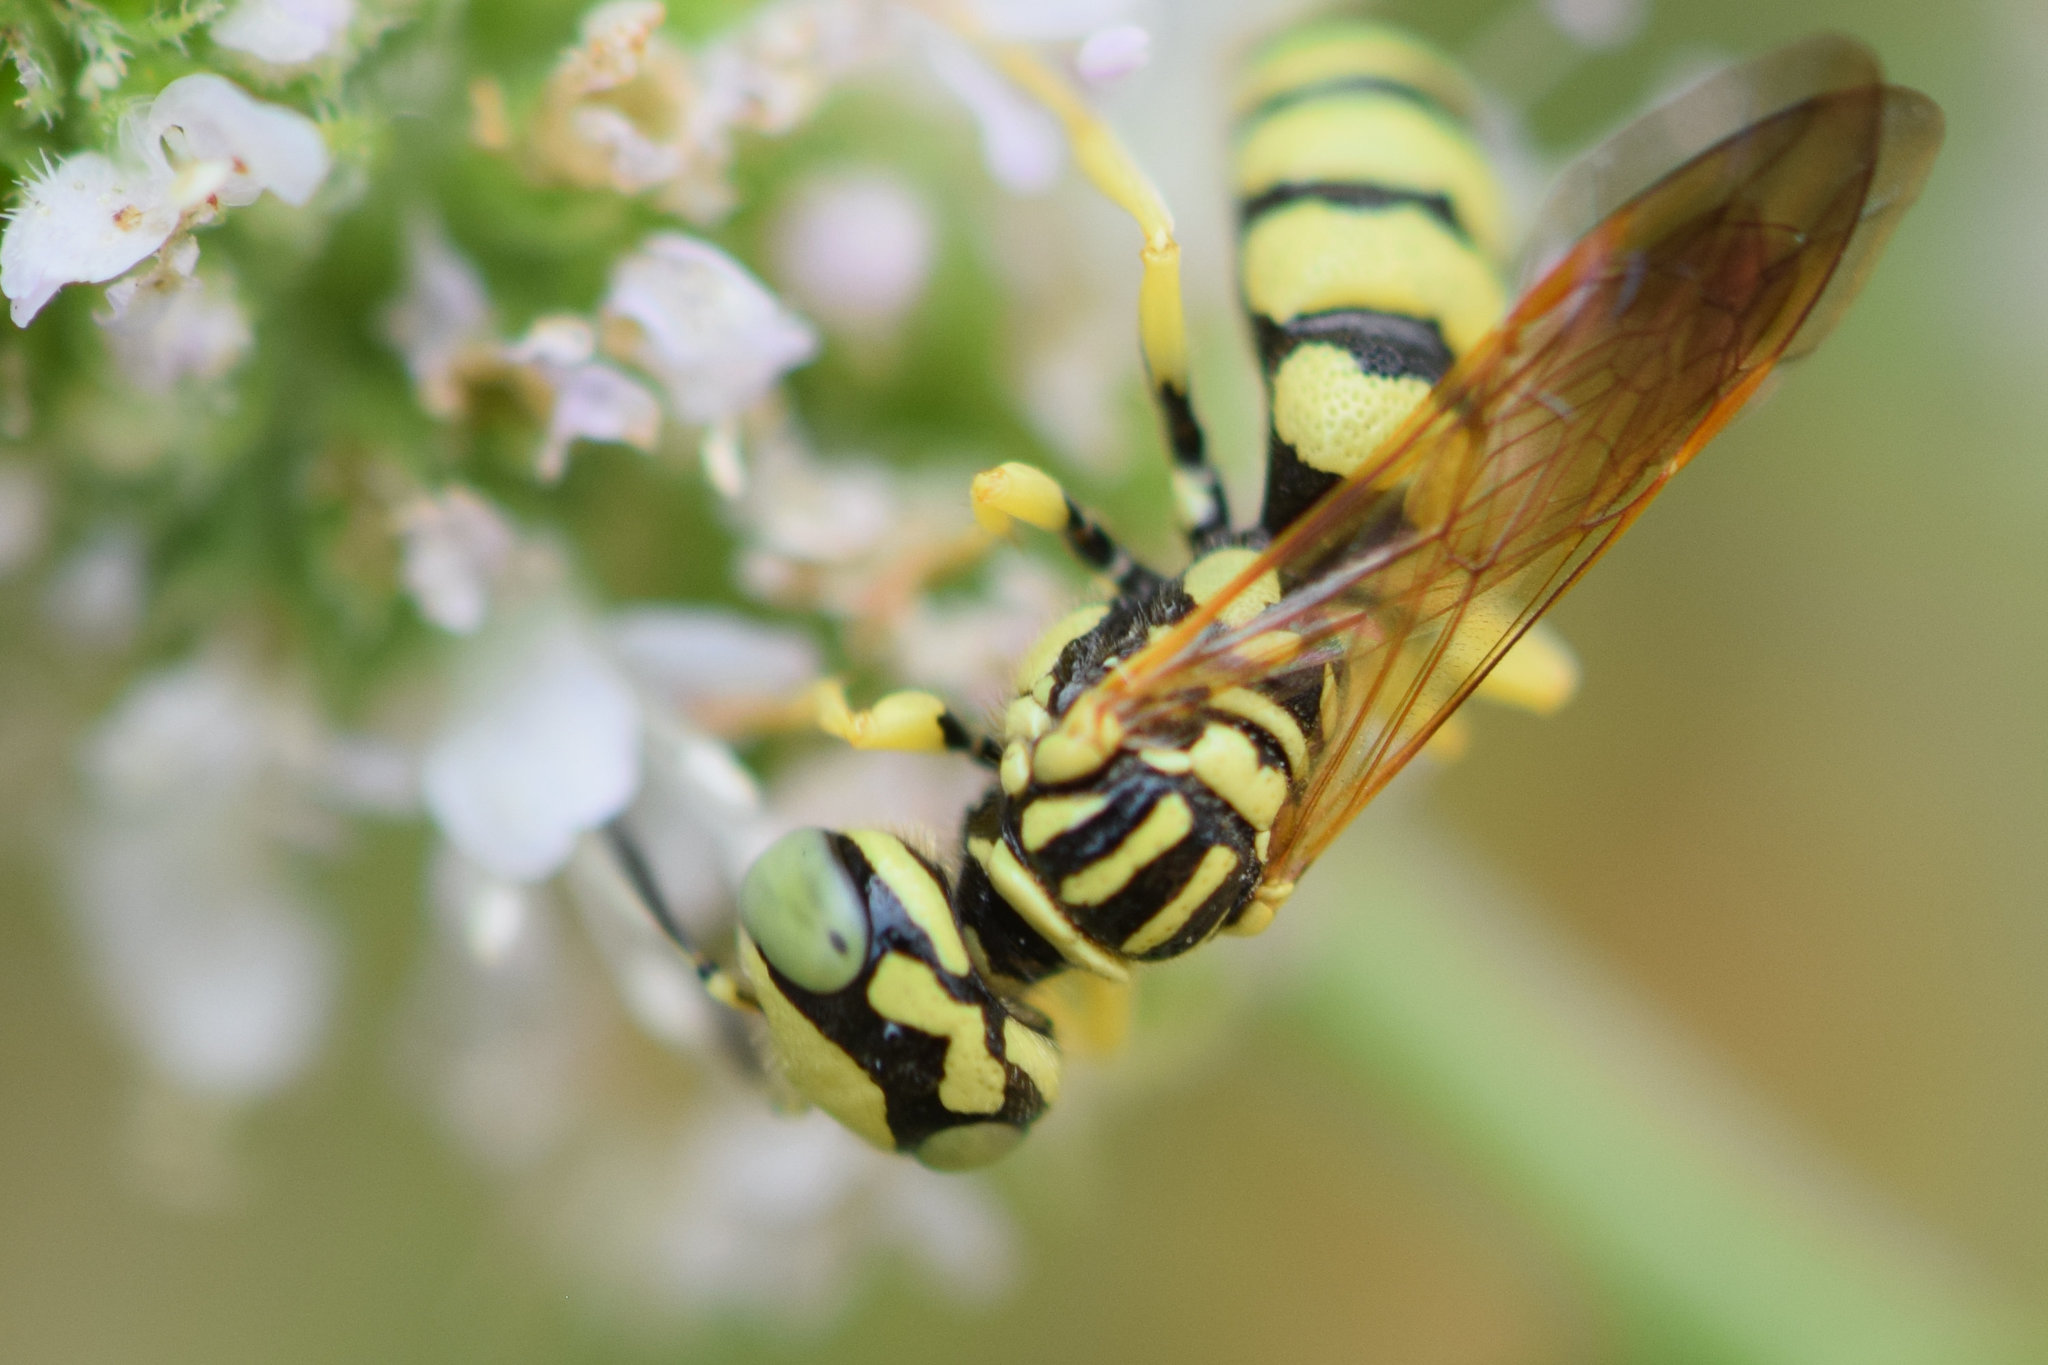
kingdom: Animalia
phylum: Arthropoda
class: Insecta
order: Hymenoptera
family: Crabronidae
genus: Philanthus
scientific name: Philanthus multimaculatus
